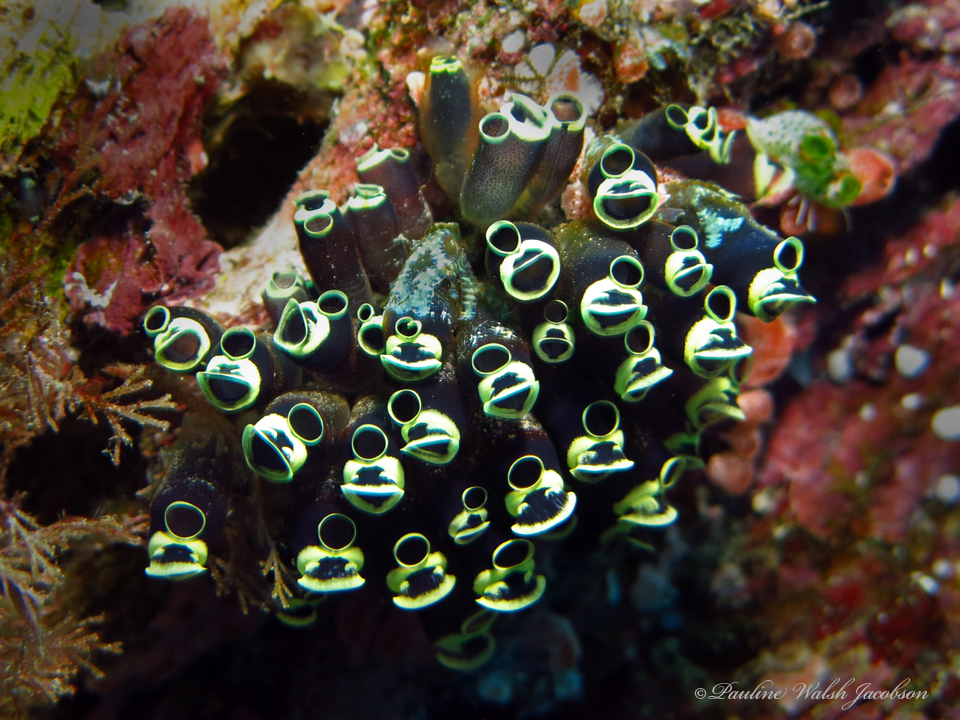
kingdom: Animalia
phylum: Chordata
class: Ascidiacea
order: Aplousobranchia
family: Clavelinidae
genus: Clavelina
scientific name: Clavelina robusta
